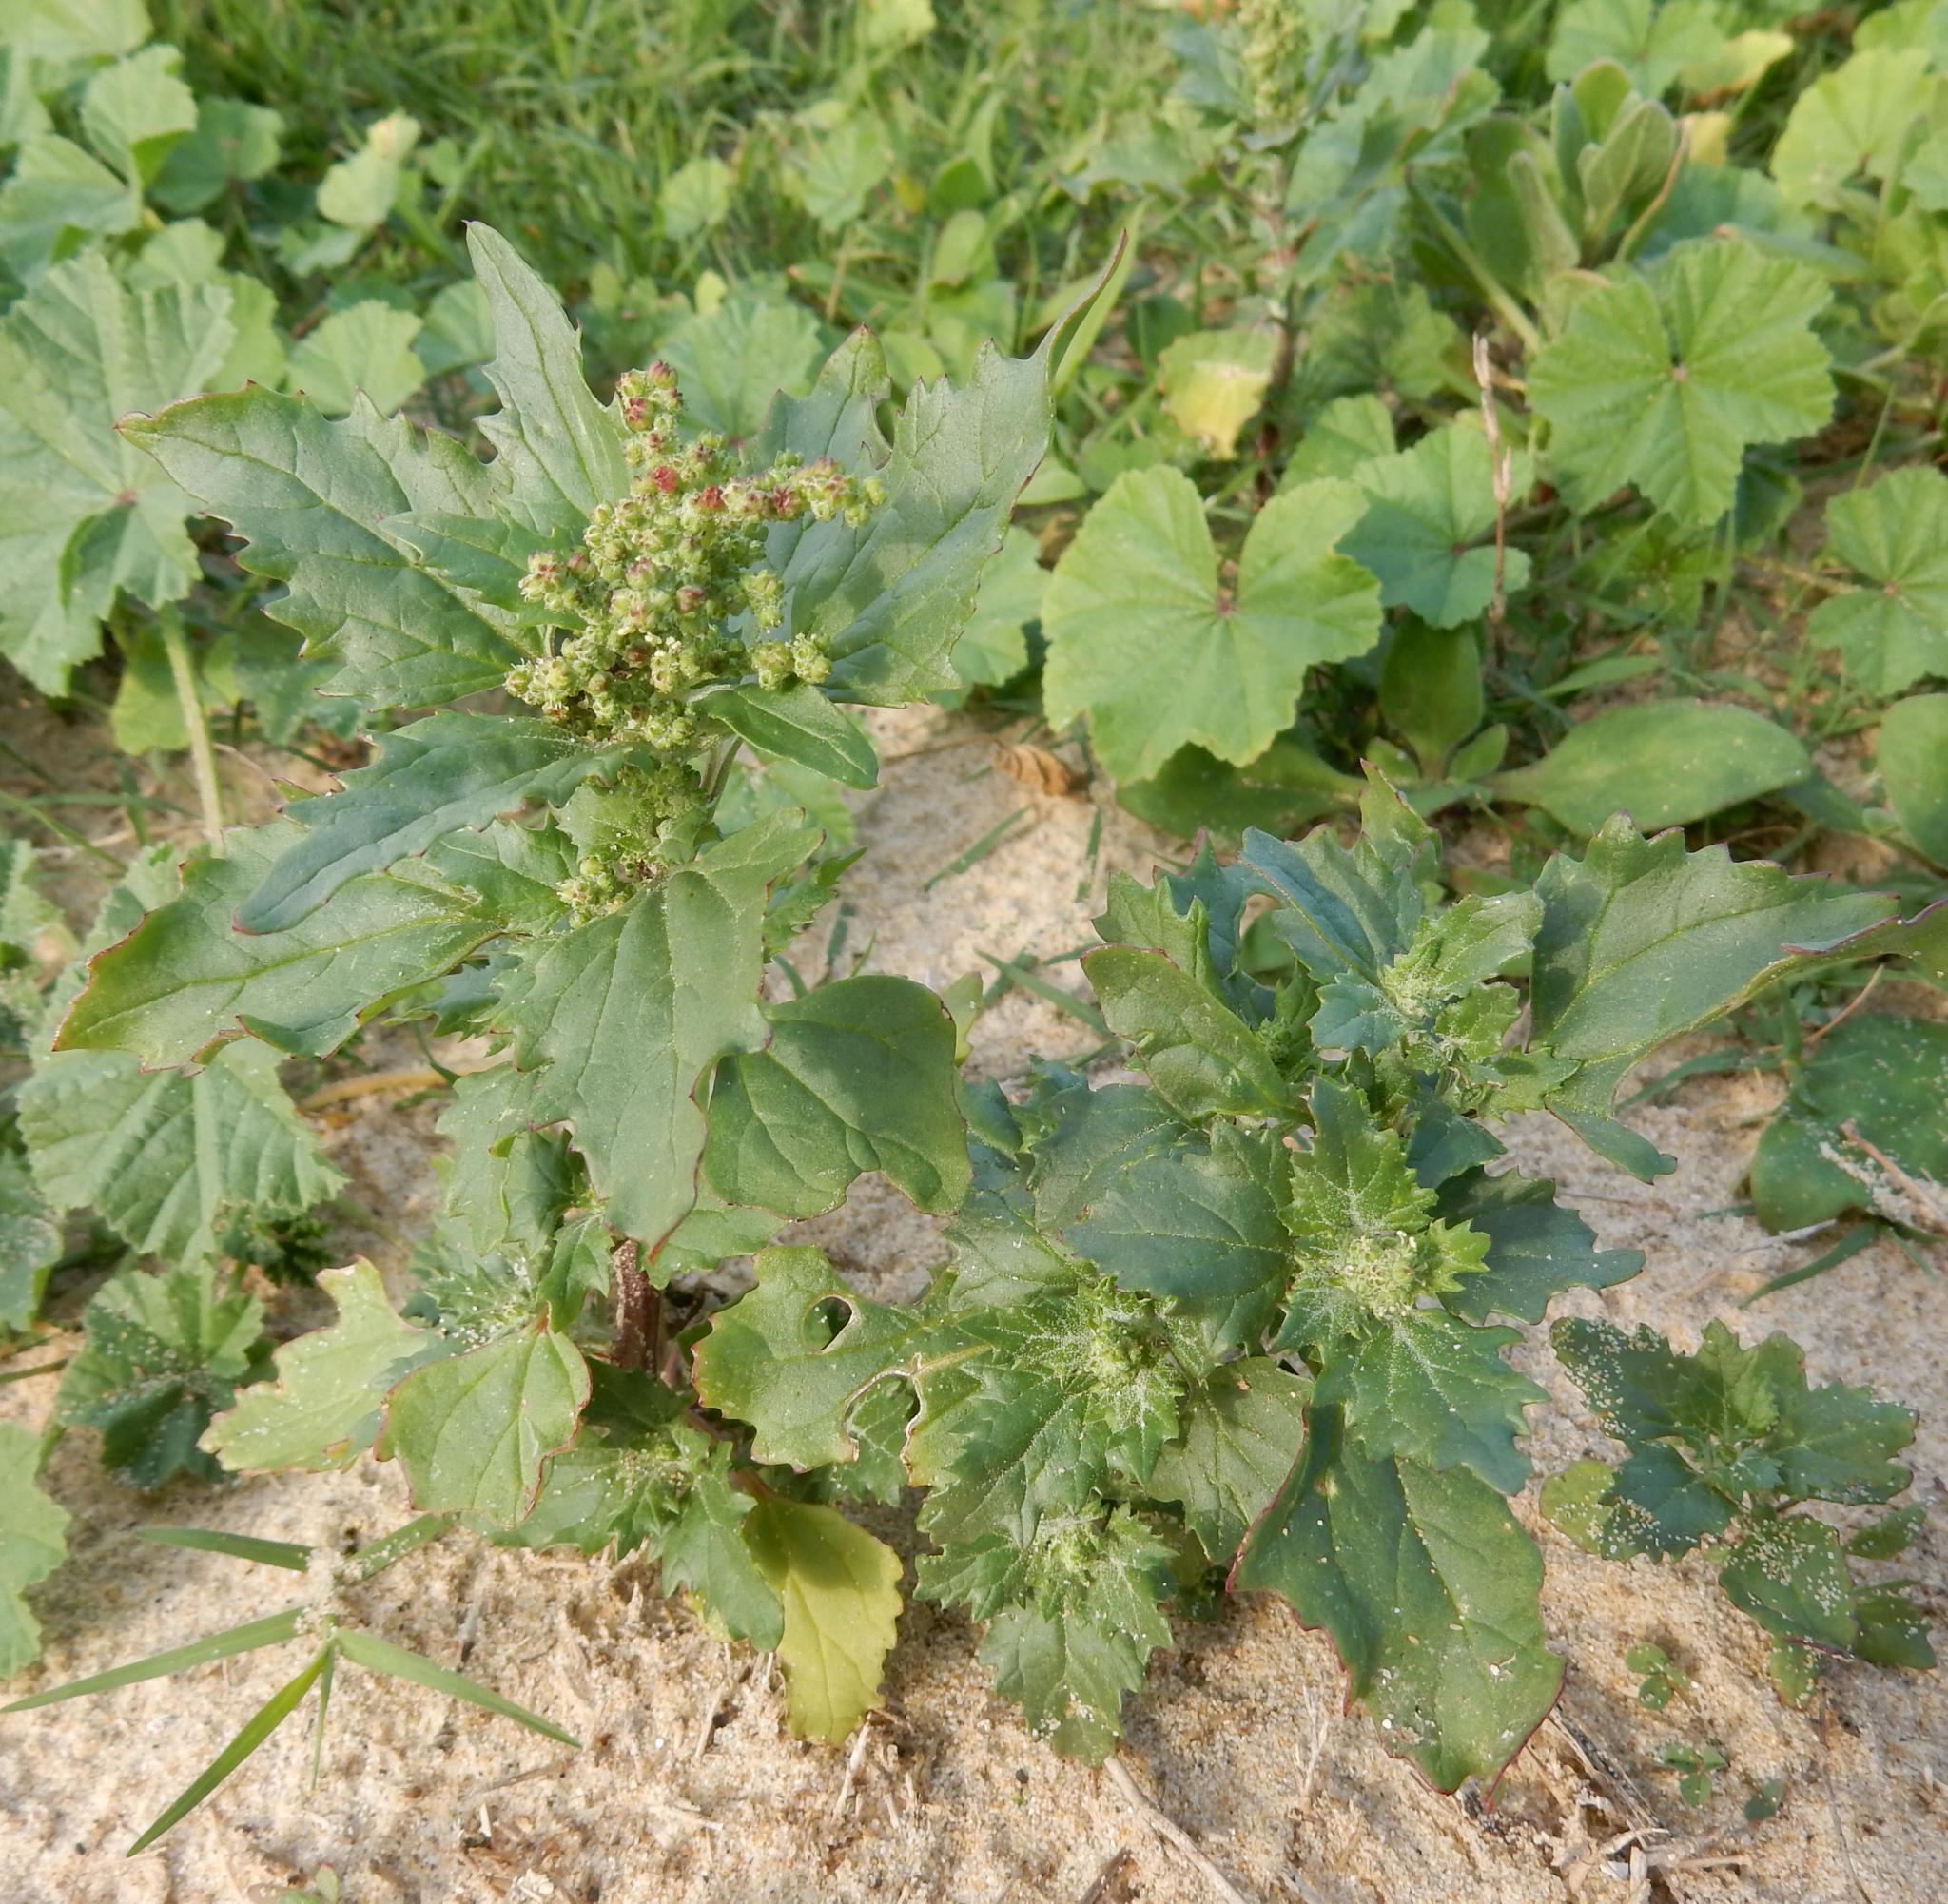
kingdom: Plantae
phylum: Tracheophyta
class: Magnoliopsida
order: Caryophyllales
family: Amaranthaceae
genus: Chenopodiastrum
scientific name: Chenopodiastrum murale
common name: Sowbane
